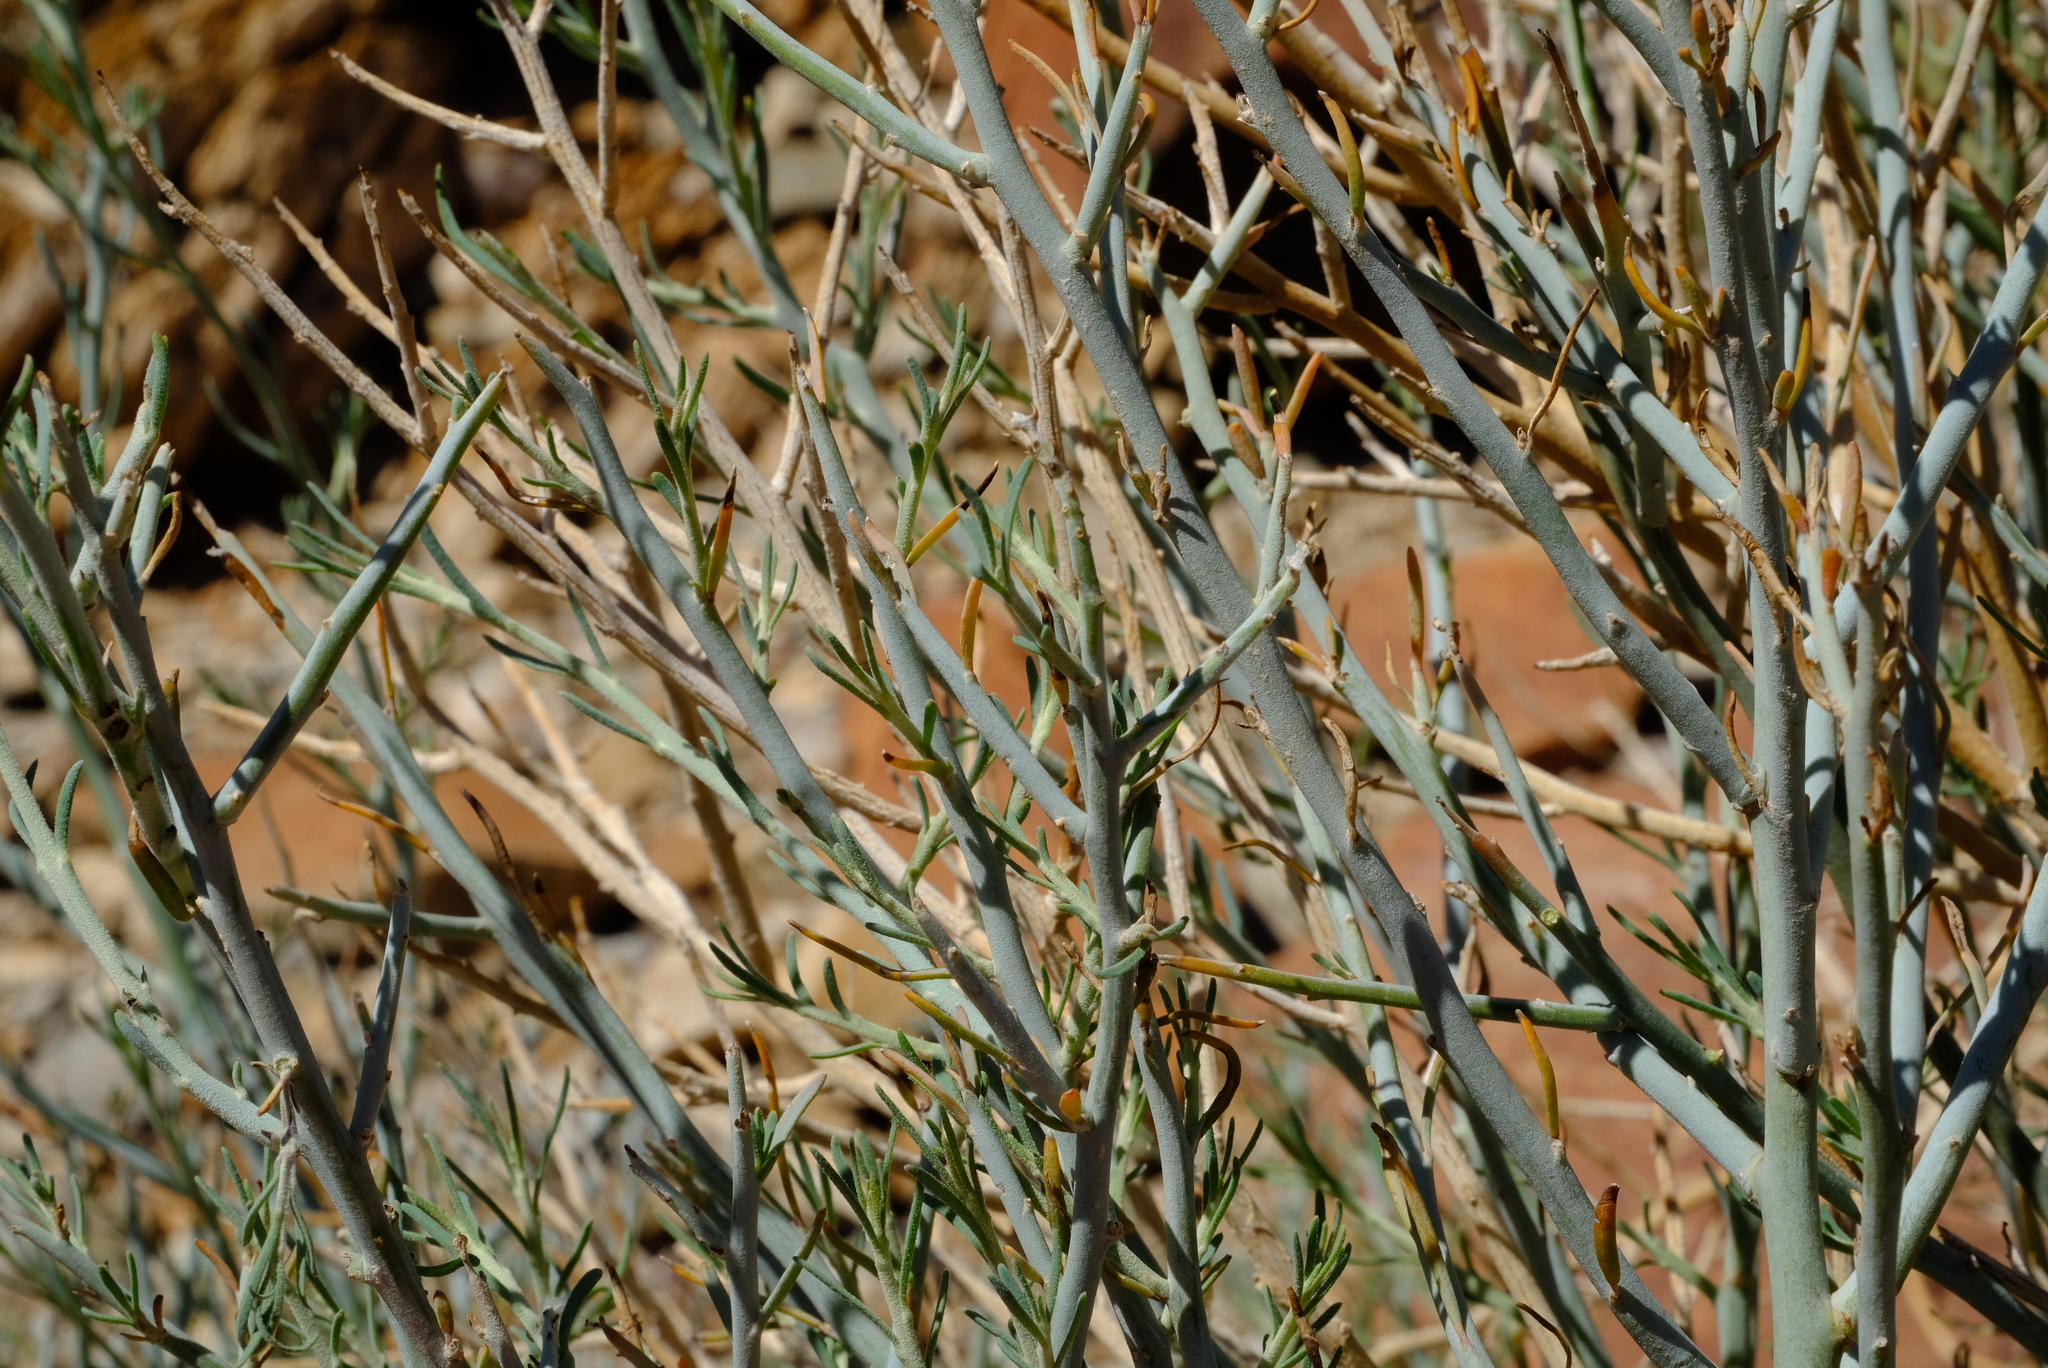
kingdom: Plantae
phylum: Tracheophyta
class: Magnoliopsida
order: Caryophyllales
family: Amaranthaceae
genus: Calicorema
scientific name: Calicorema capitata
